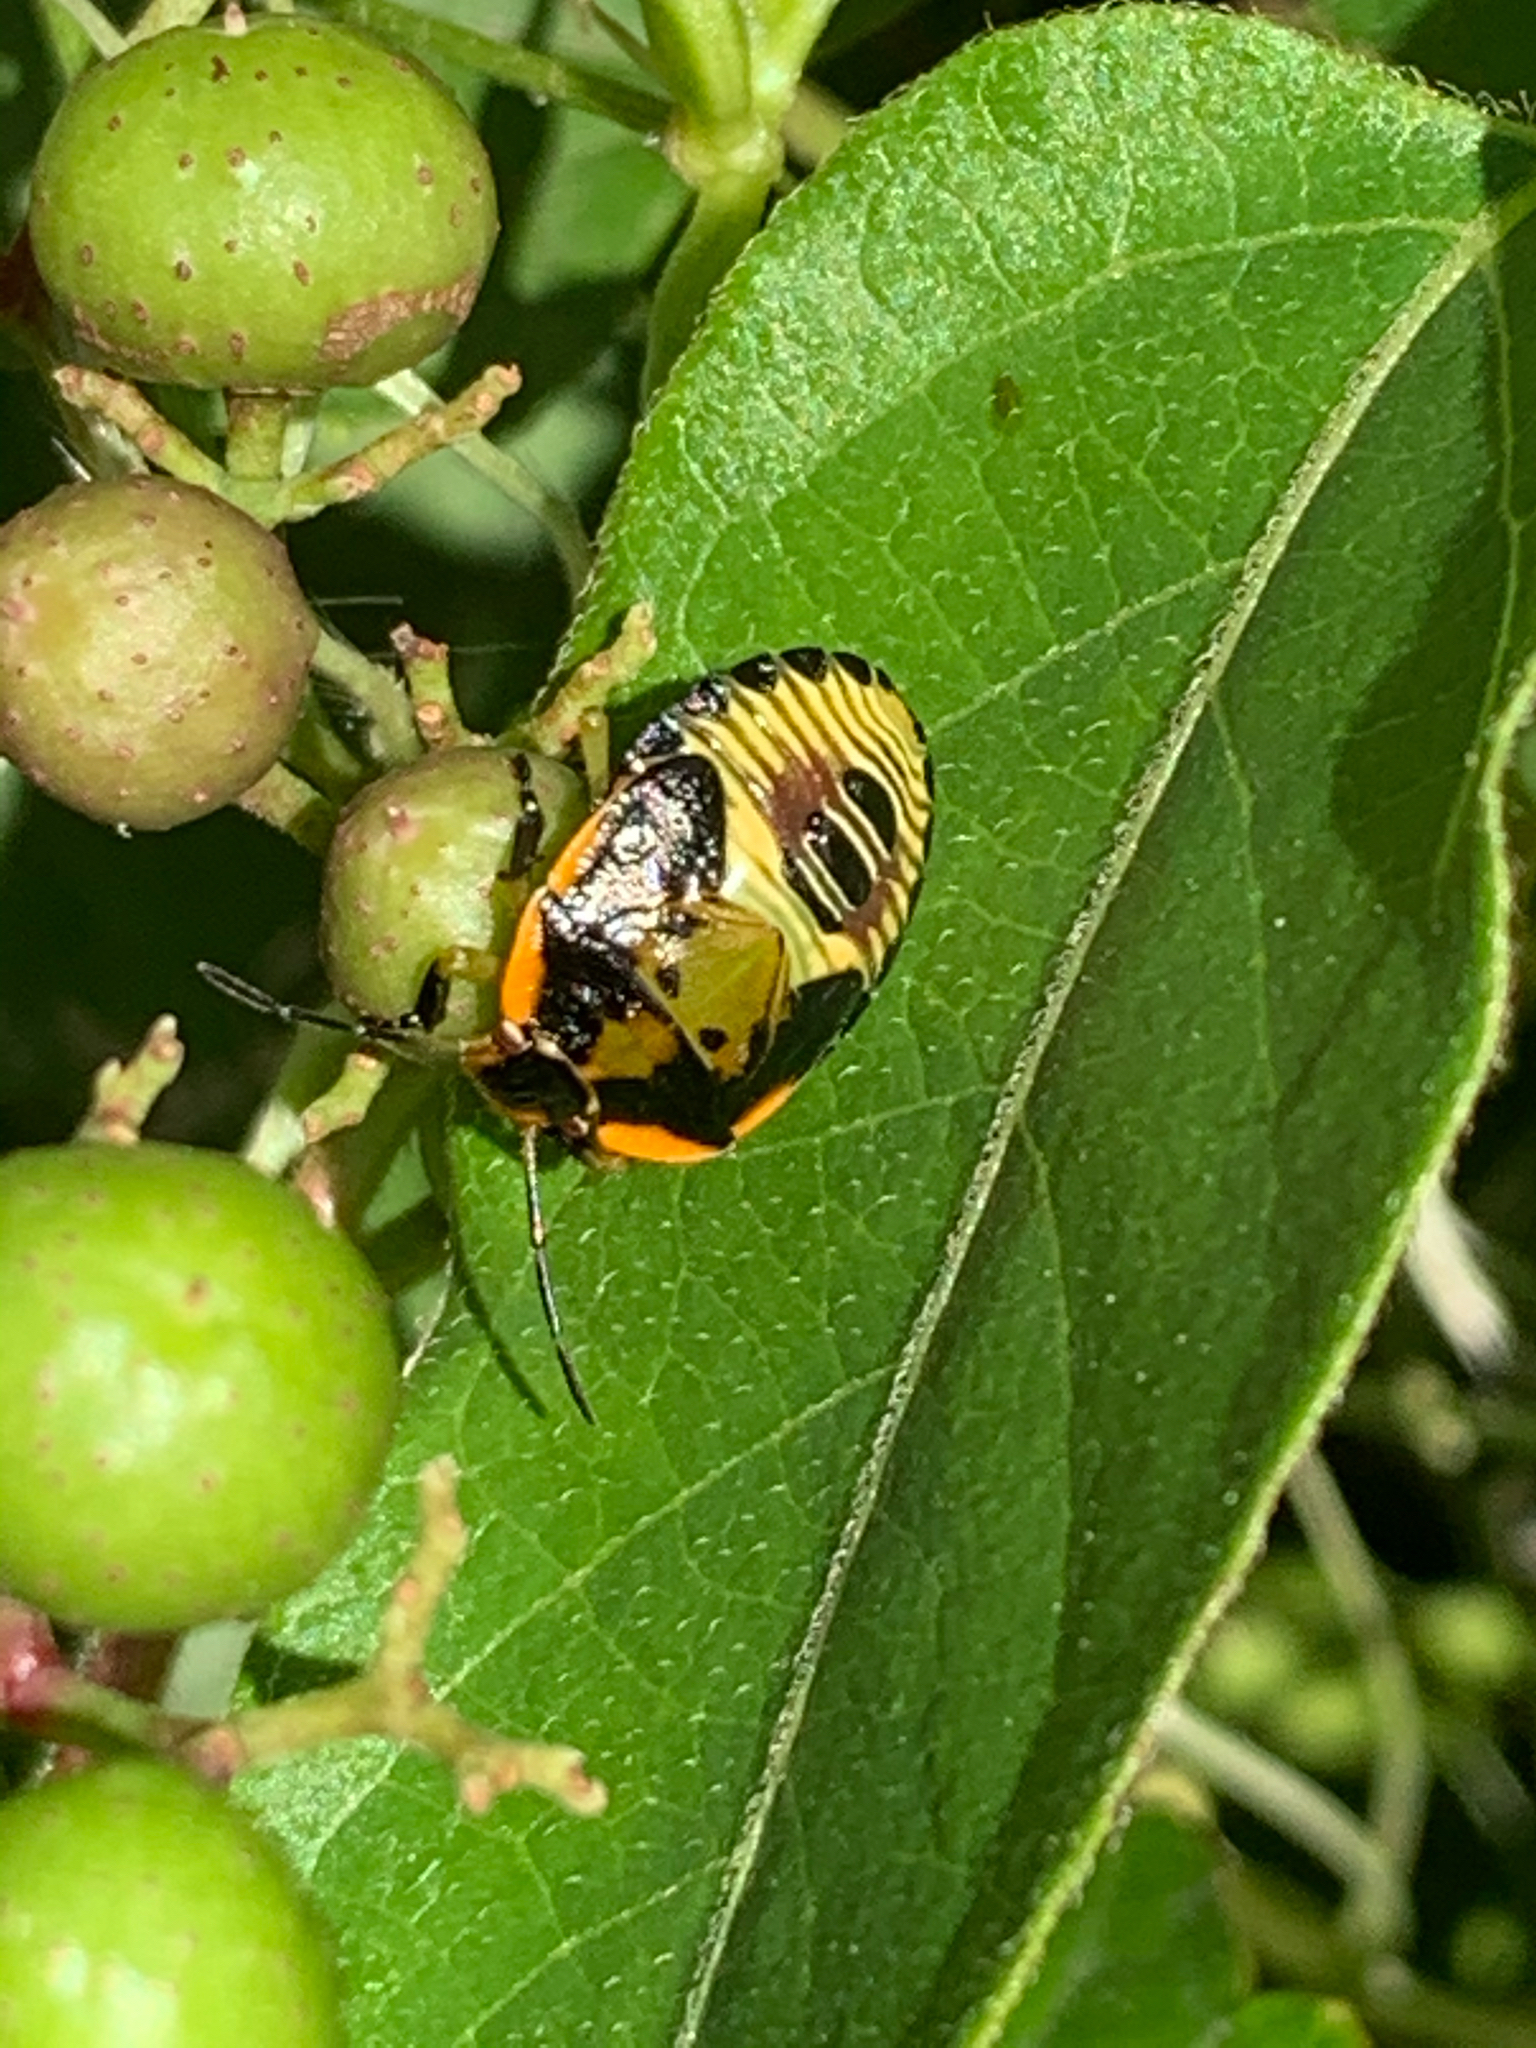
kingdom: Animalia
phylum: Arthropoda
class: Insecta
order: Hemiptera
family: Pentatomidae
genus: Chinavia
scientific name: Chinavia hilaris
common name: Green stink bug
